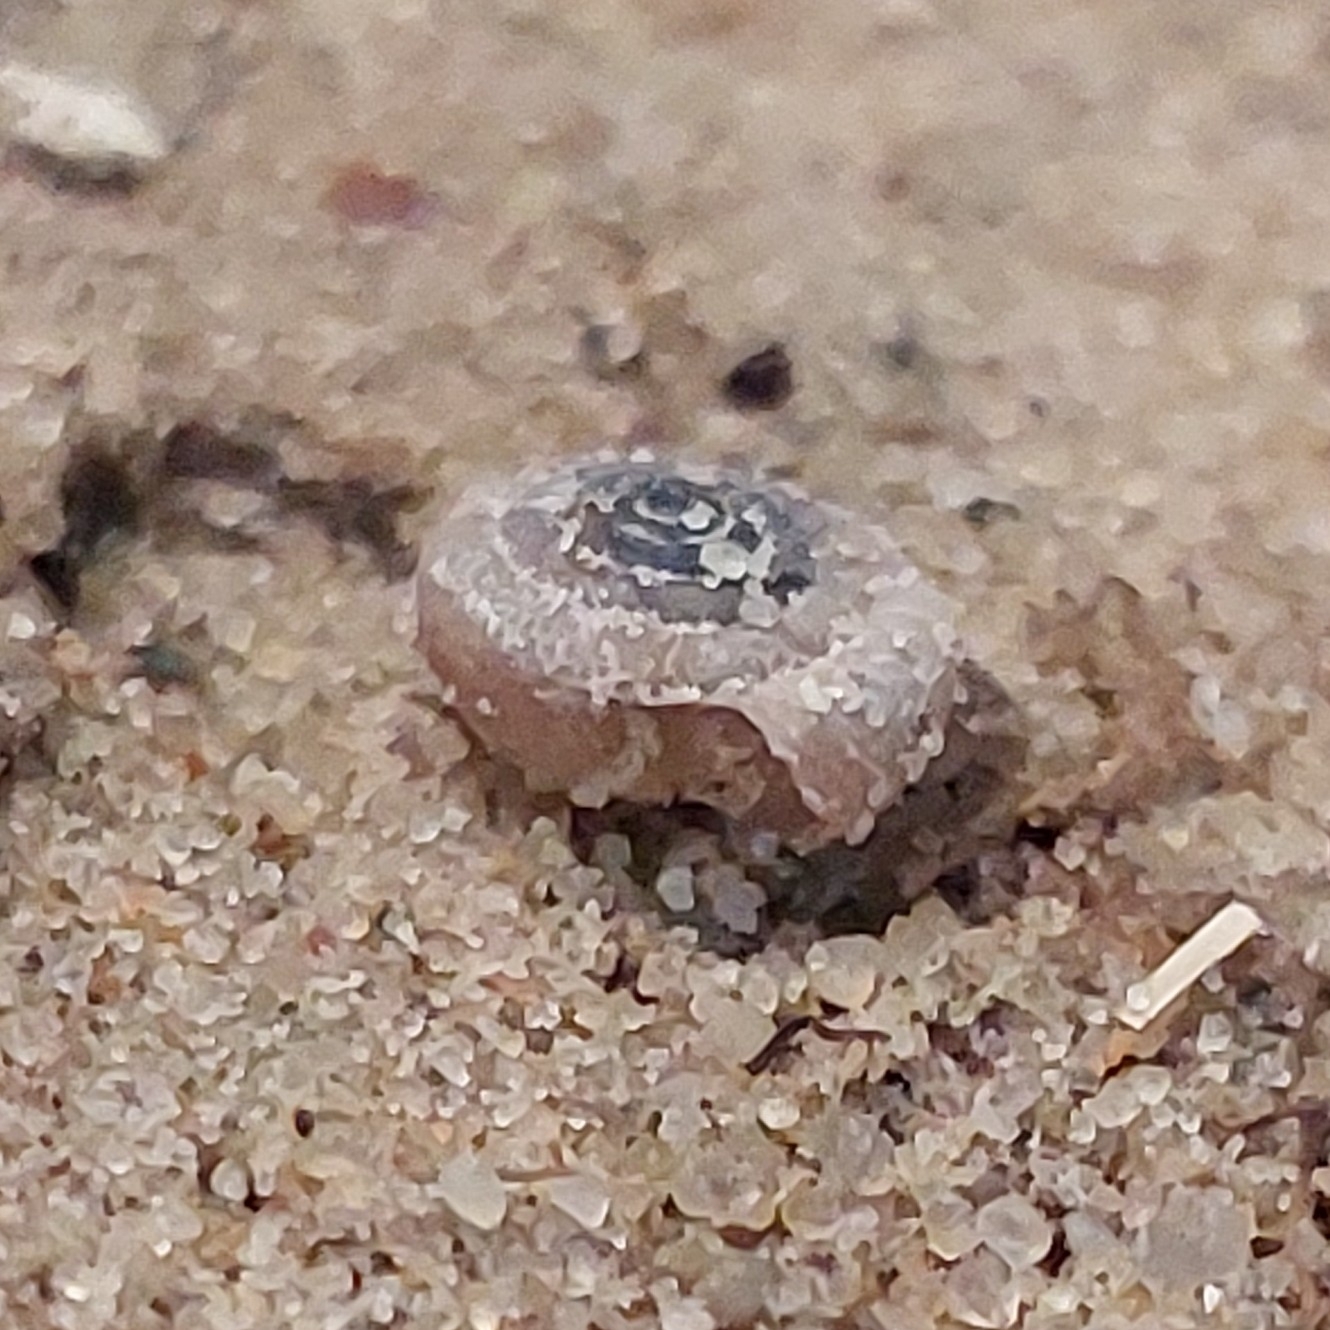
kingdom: Animalia
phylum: Mollusca
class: Gastropoda
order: Stylommatophora
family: Polygyridae
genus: Polygyra
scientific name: Polygyra cereolus
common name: Southern flatcone snail
